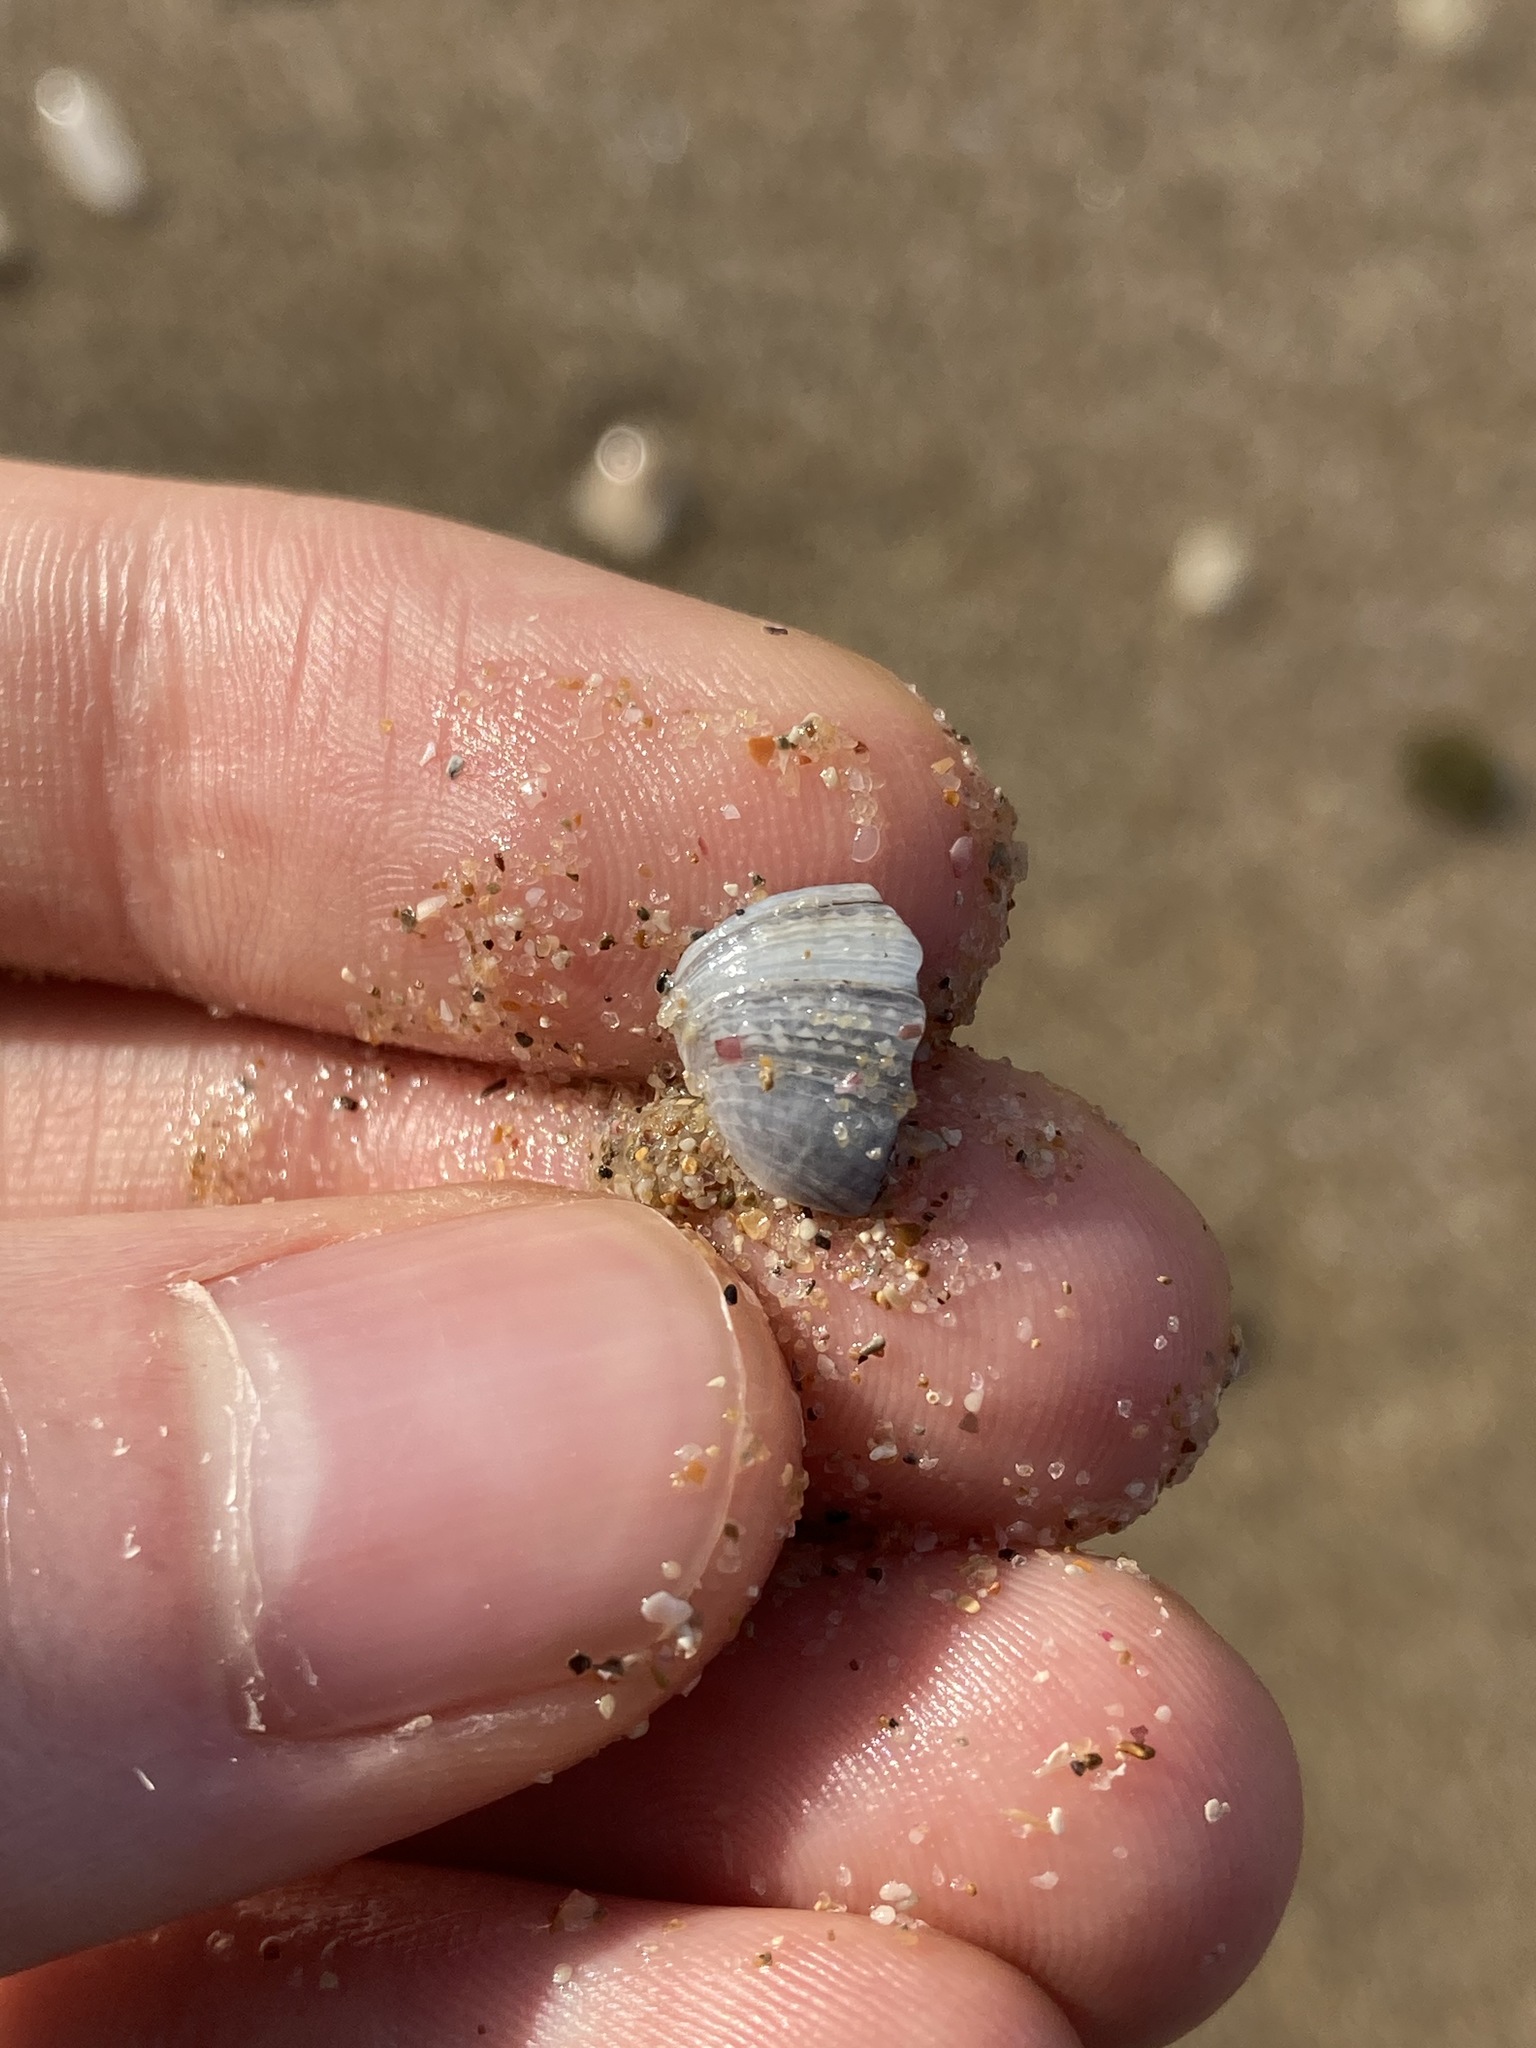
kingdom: Animalia
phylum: Mollusca
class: Bivalvia
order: Venerida
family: Veneridae
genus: Irus
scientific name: Irus cumingii
